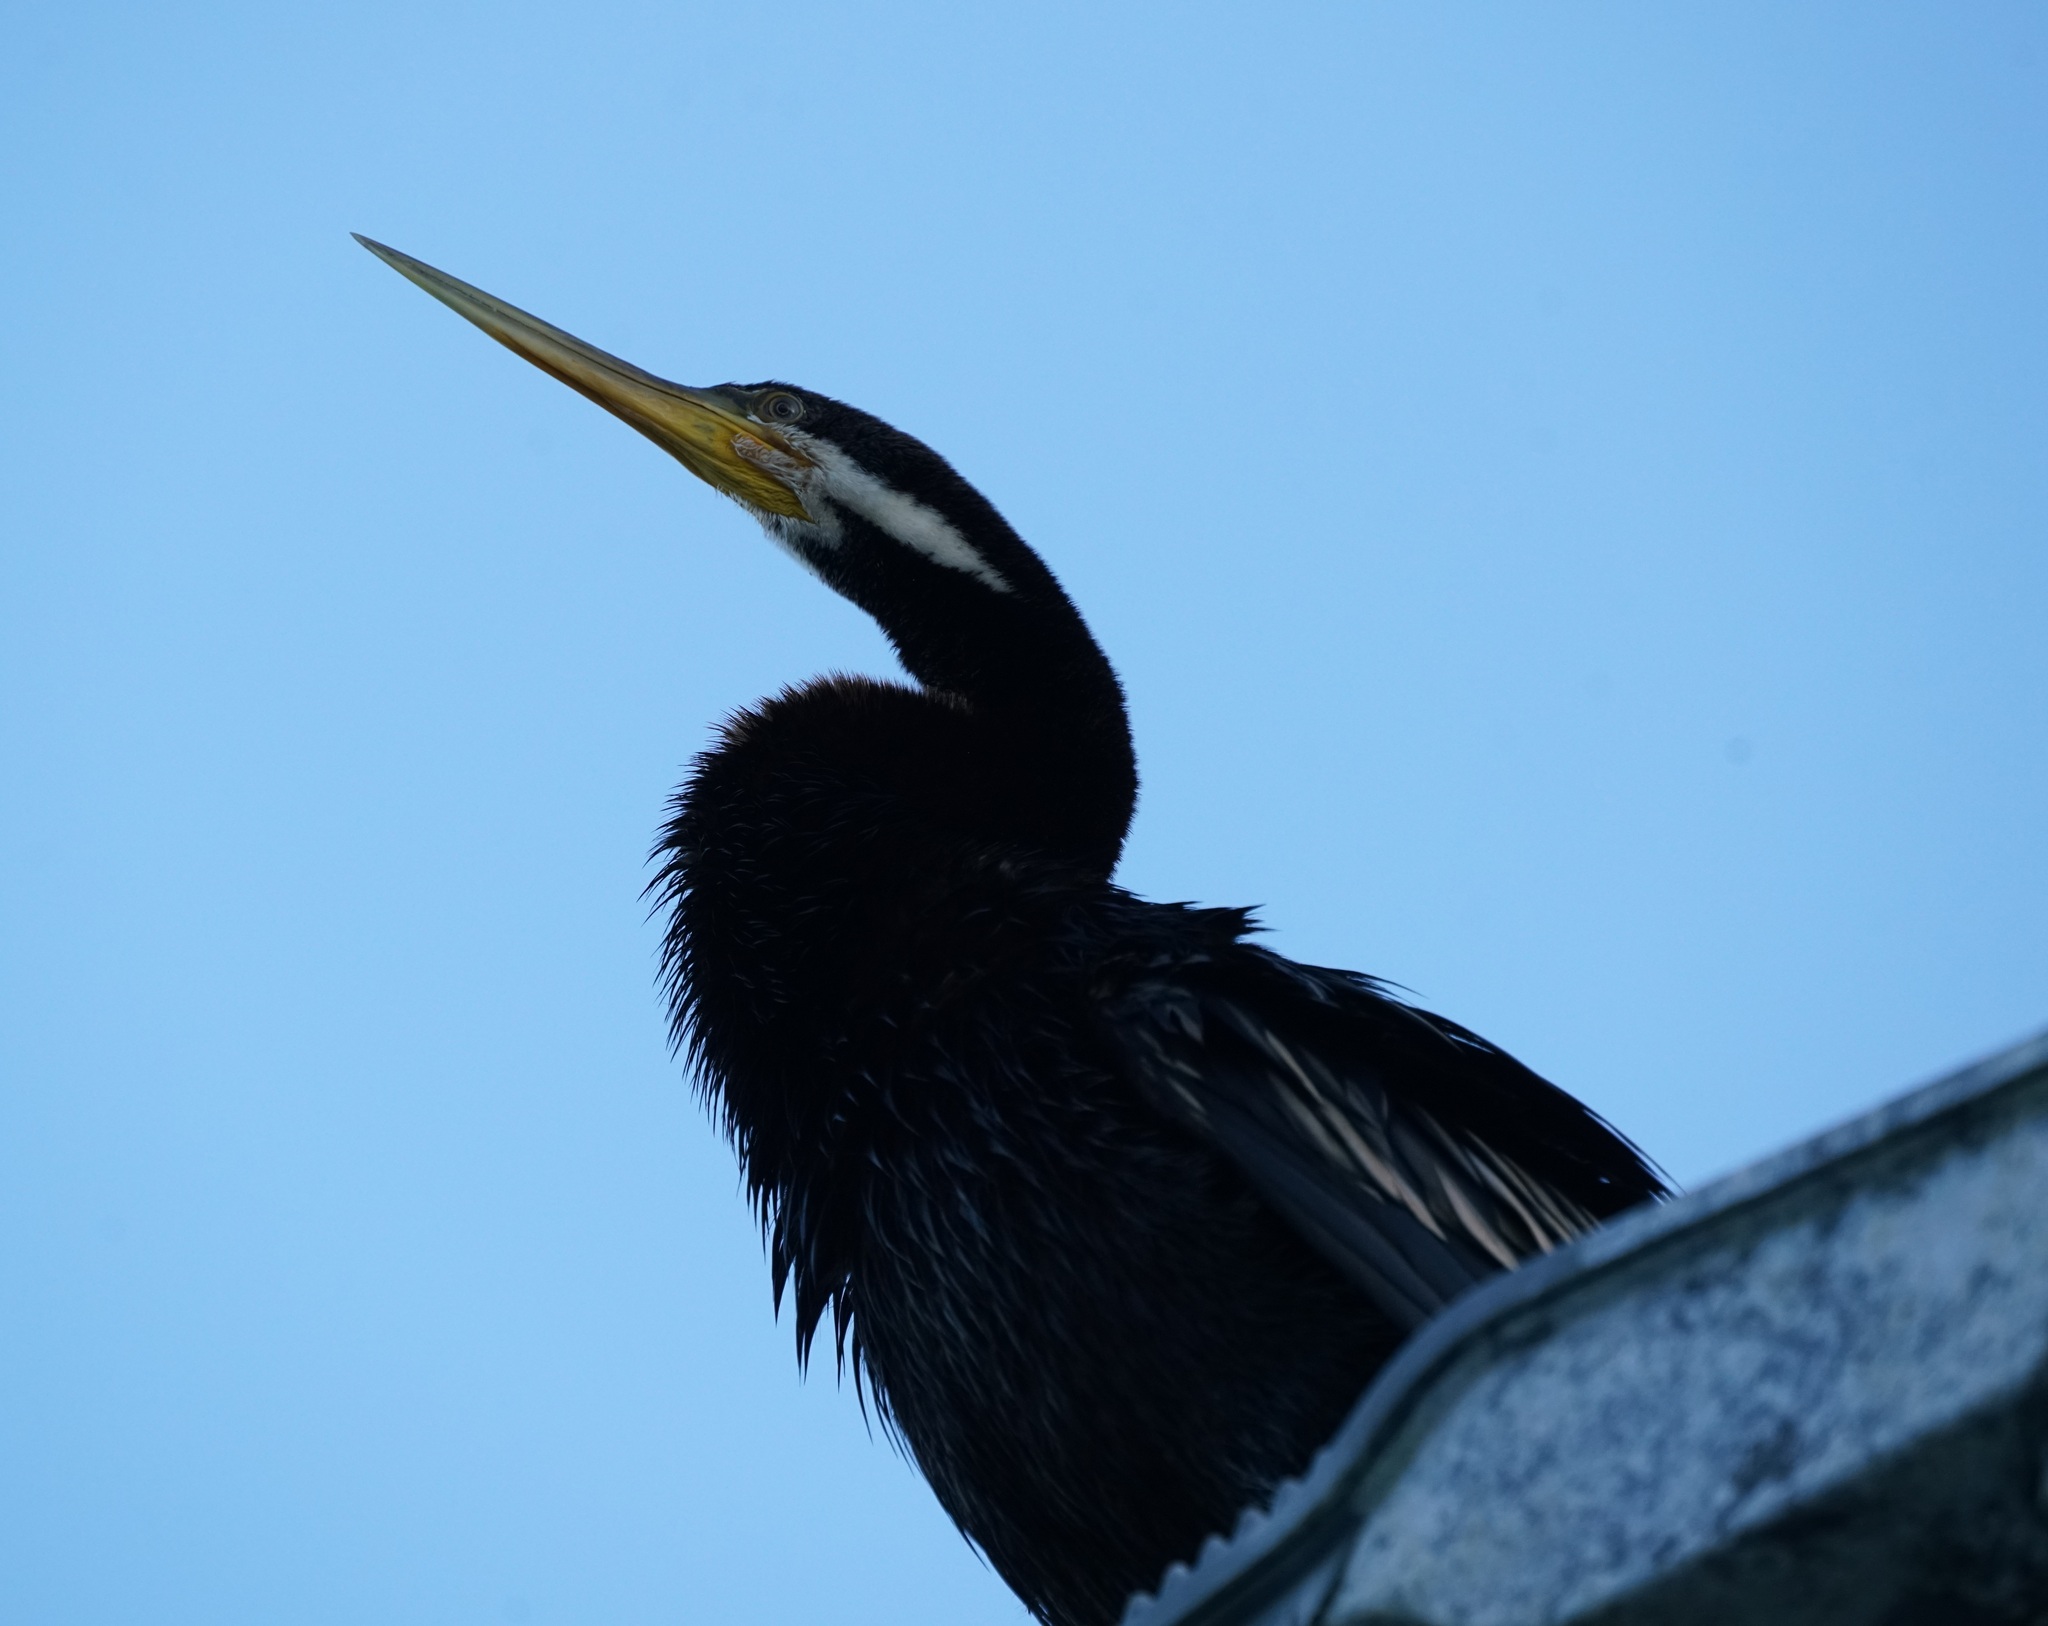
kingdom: Animalia
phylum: Chordata
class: Aves
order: Suliformes
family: Anhingidae
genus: Anhinga
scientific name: Anhinga novaehollandiae
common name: Australasian darter
